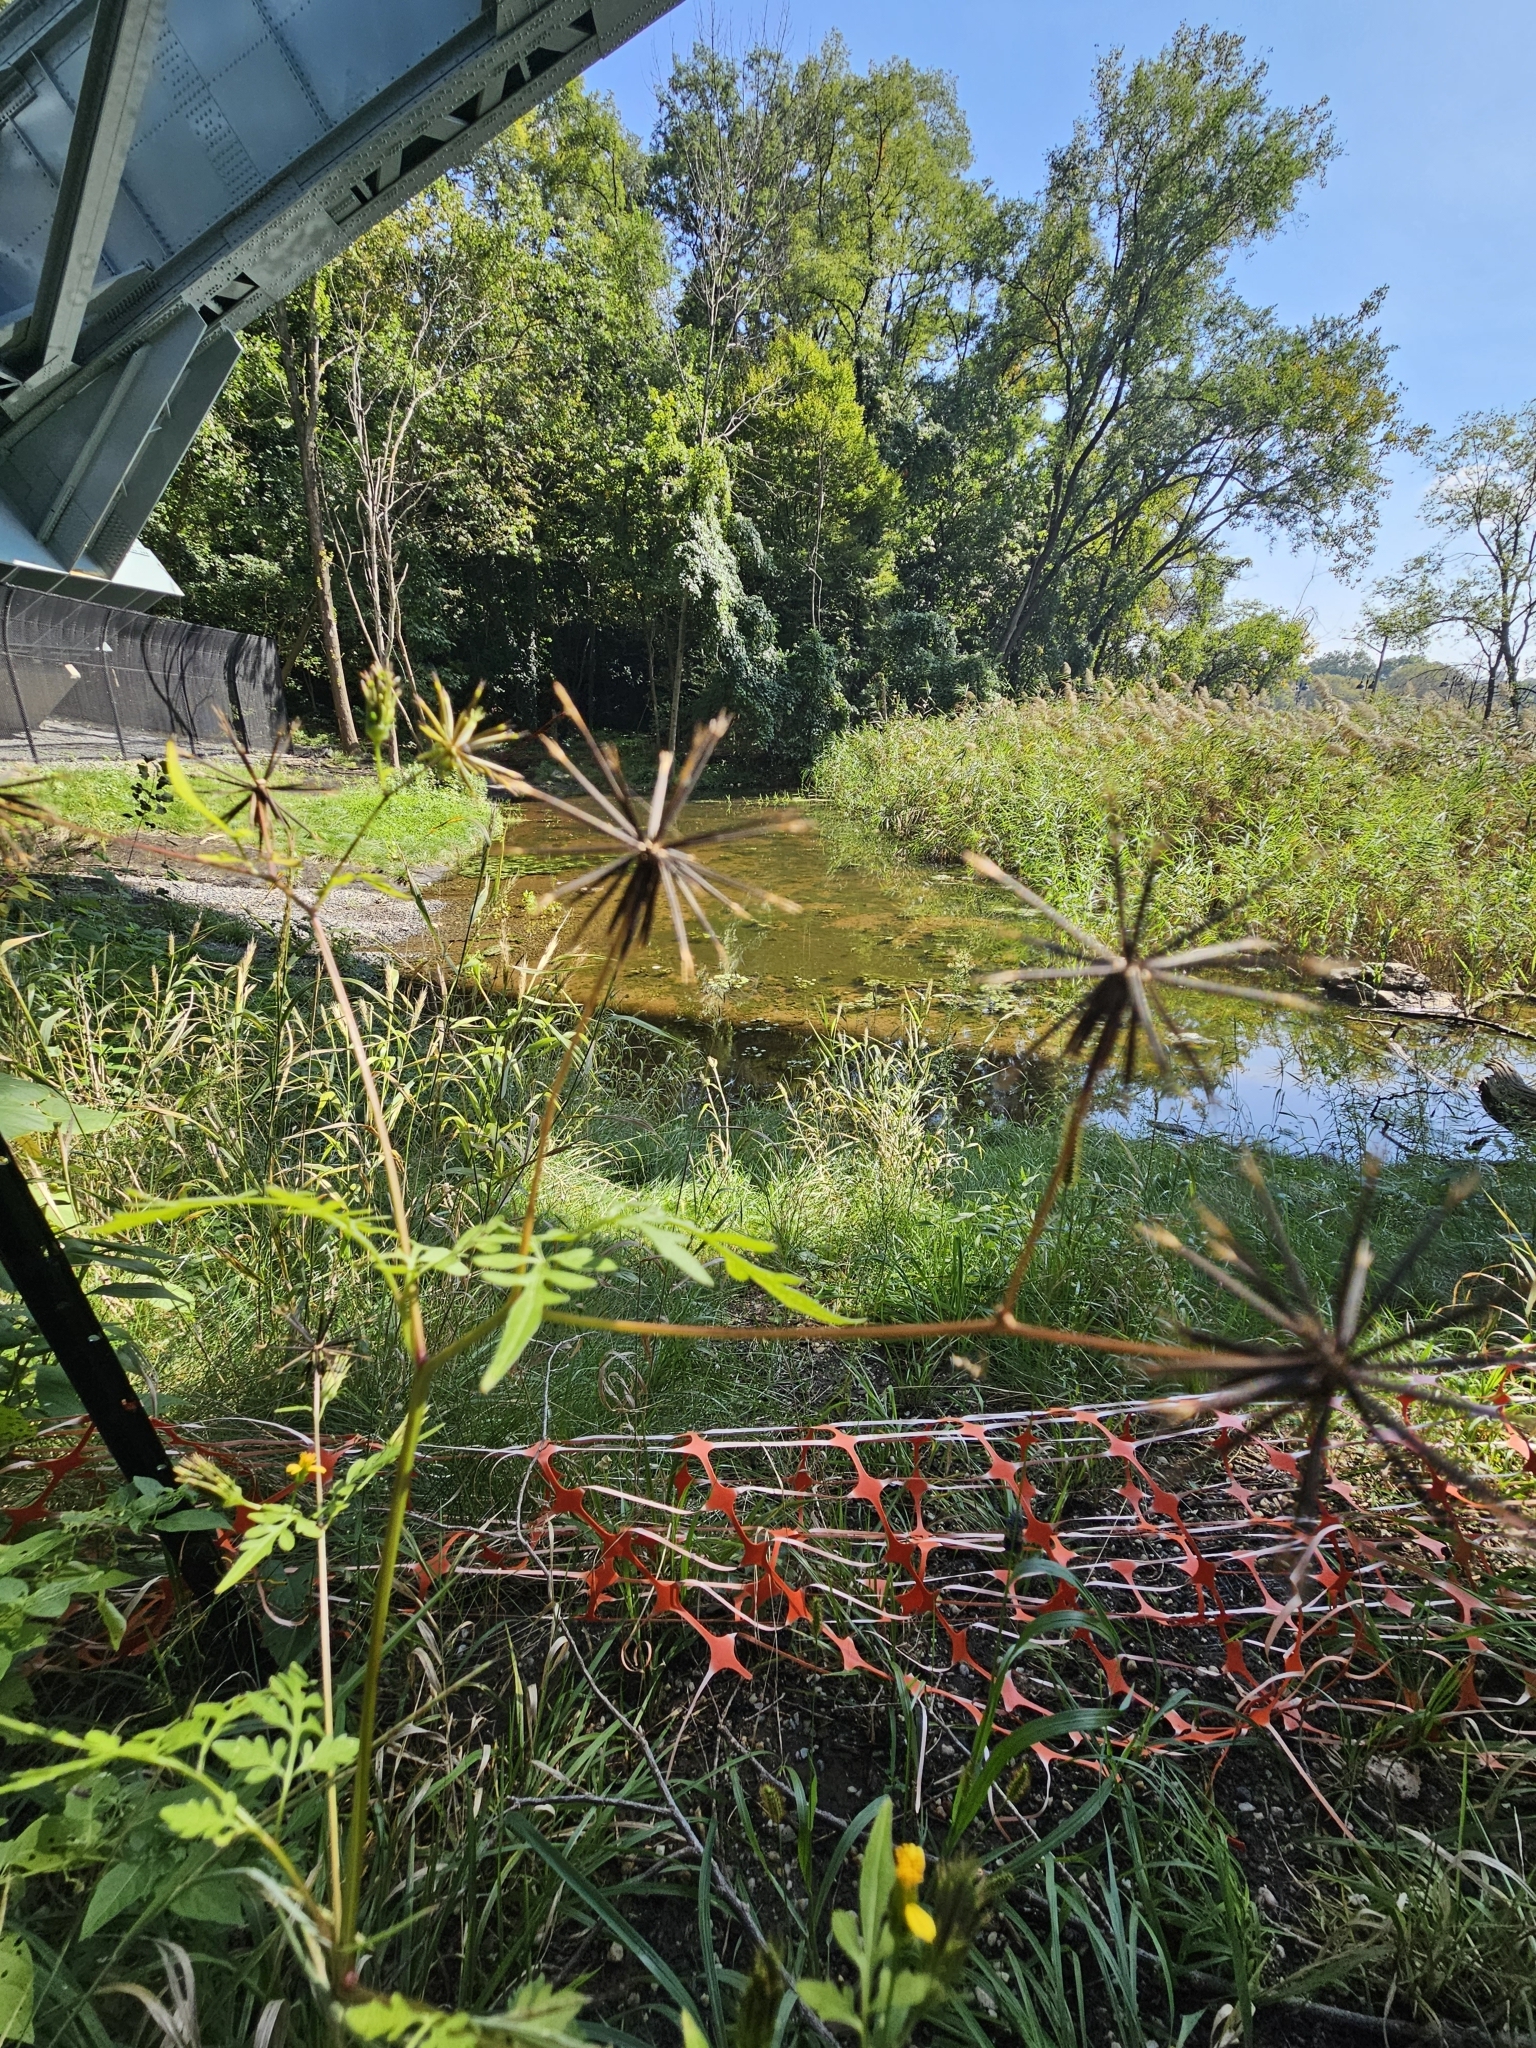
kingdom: Plantae
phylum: Tracheophyta
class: Magnoliopsida
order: Asterales
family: Asteraceae
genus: Bidens
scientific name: Bidens bipinnata
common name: Spanish-needles
